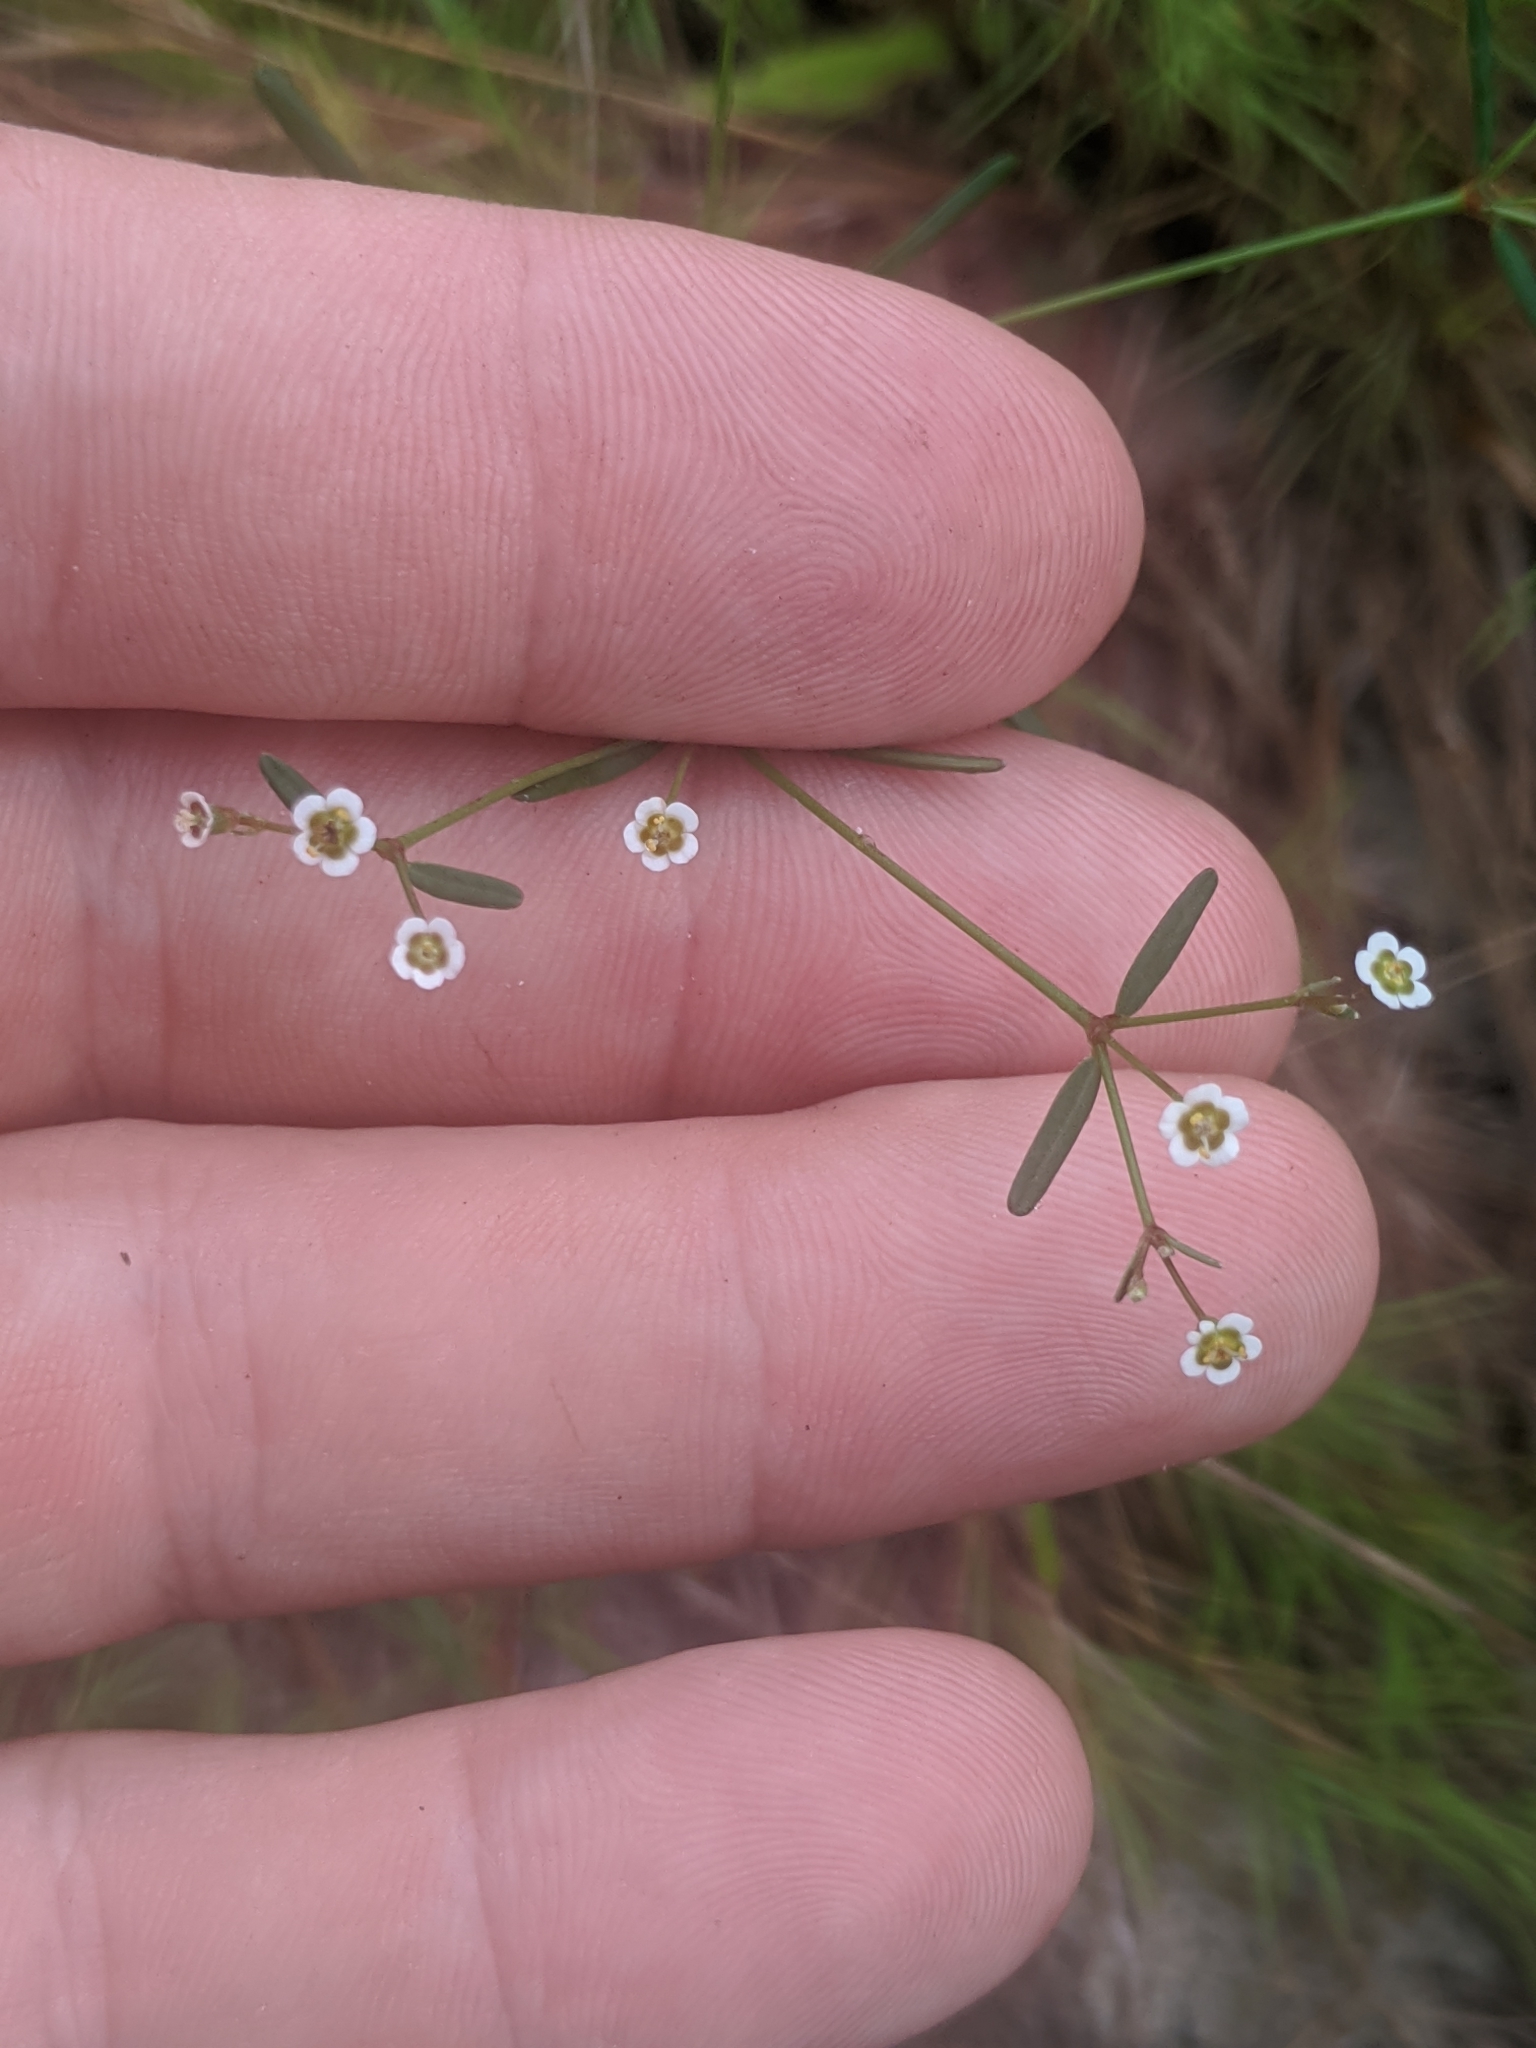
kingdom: Plantae
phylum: Tracheophyta
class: Magnoliopsida
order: Malpighiales
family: Euphorbiaceae
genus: Euphorbia
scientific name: Euphorbia curtisii
